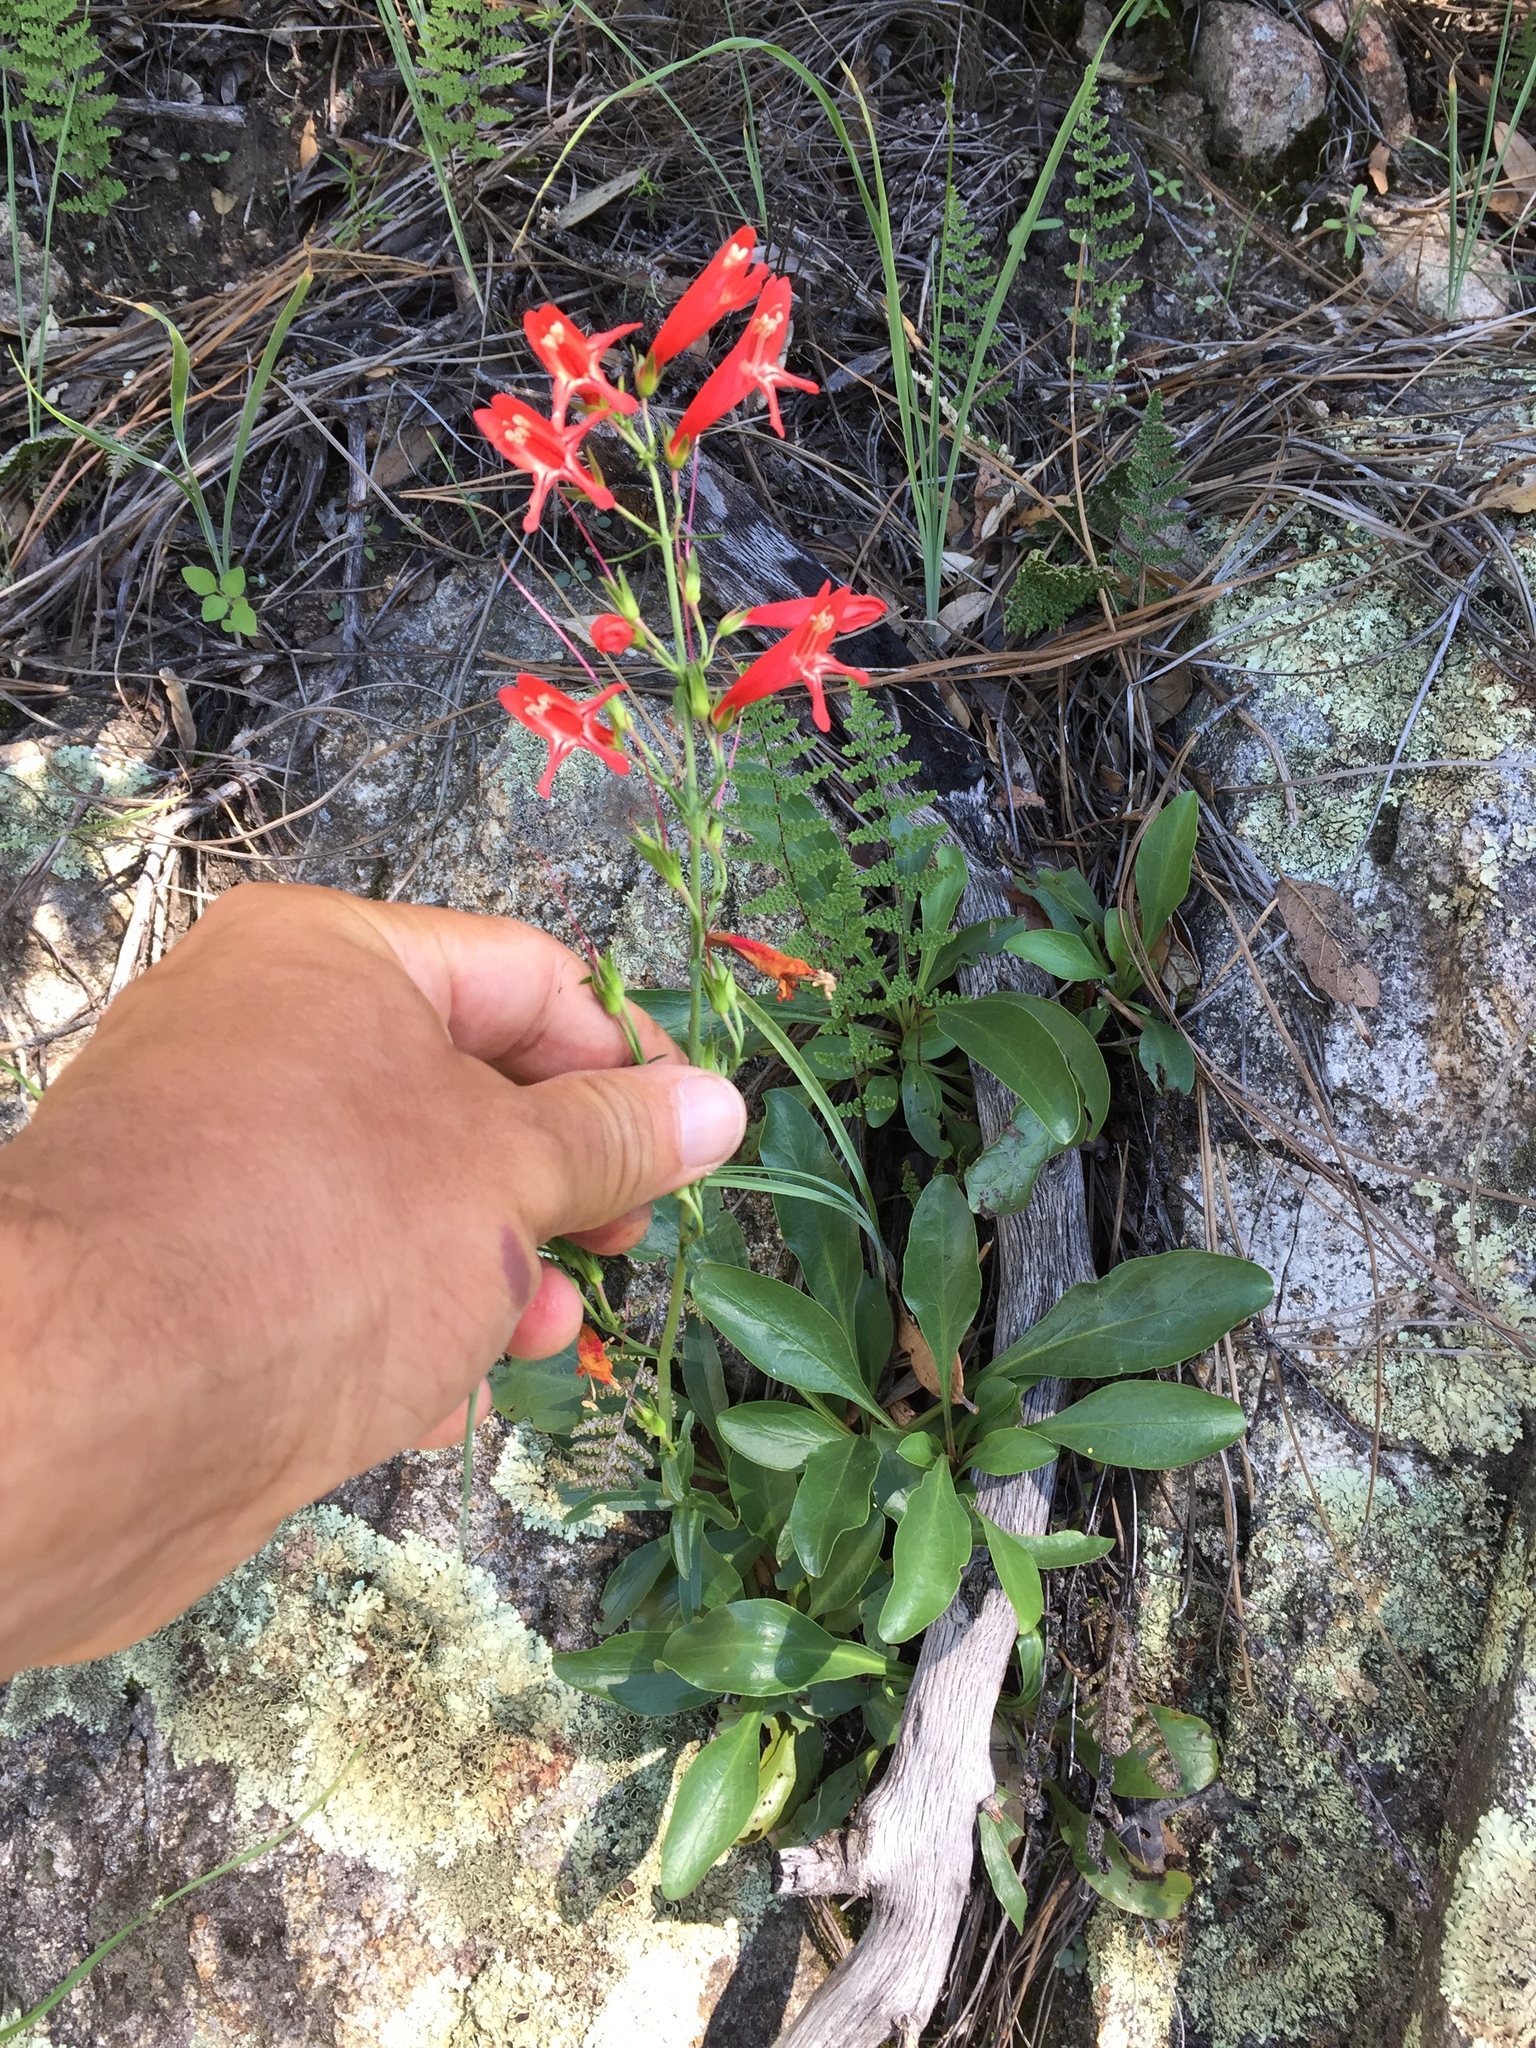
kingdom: Plantae
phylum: Tracheophyta
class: Magnoliopsida
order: Lamiales
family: Plantaginaceae
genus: Penstemon
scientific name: Penstemon barbatus
